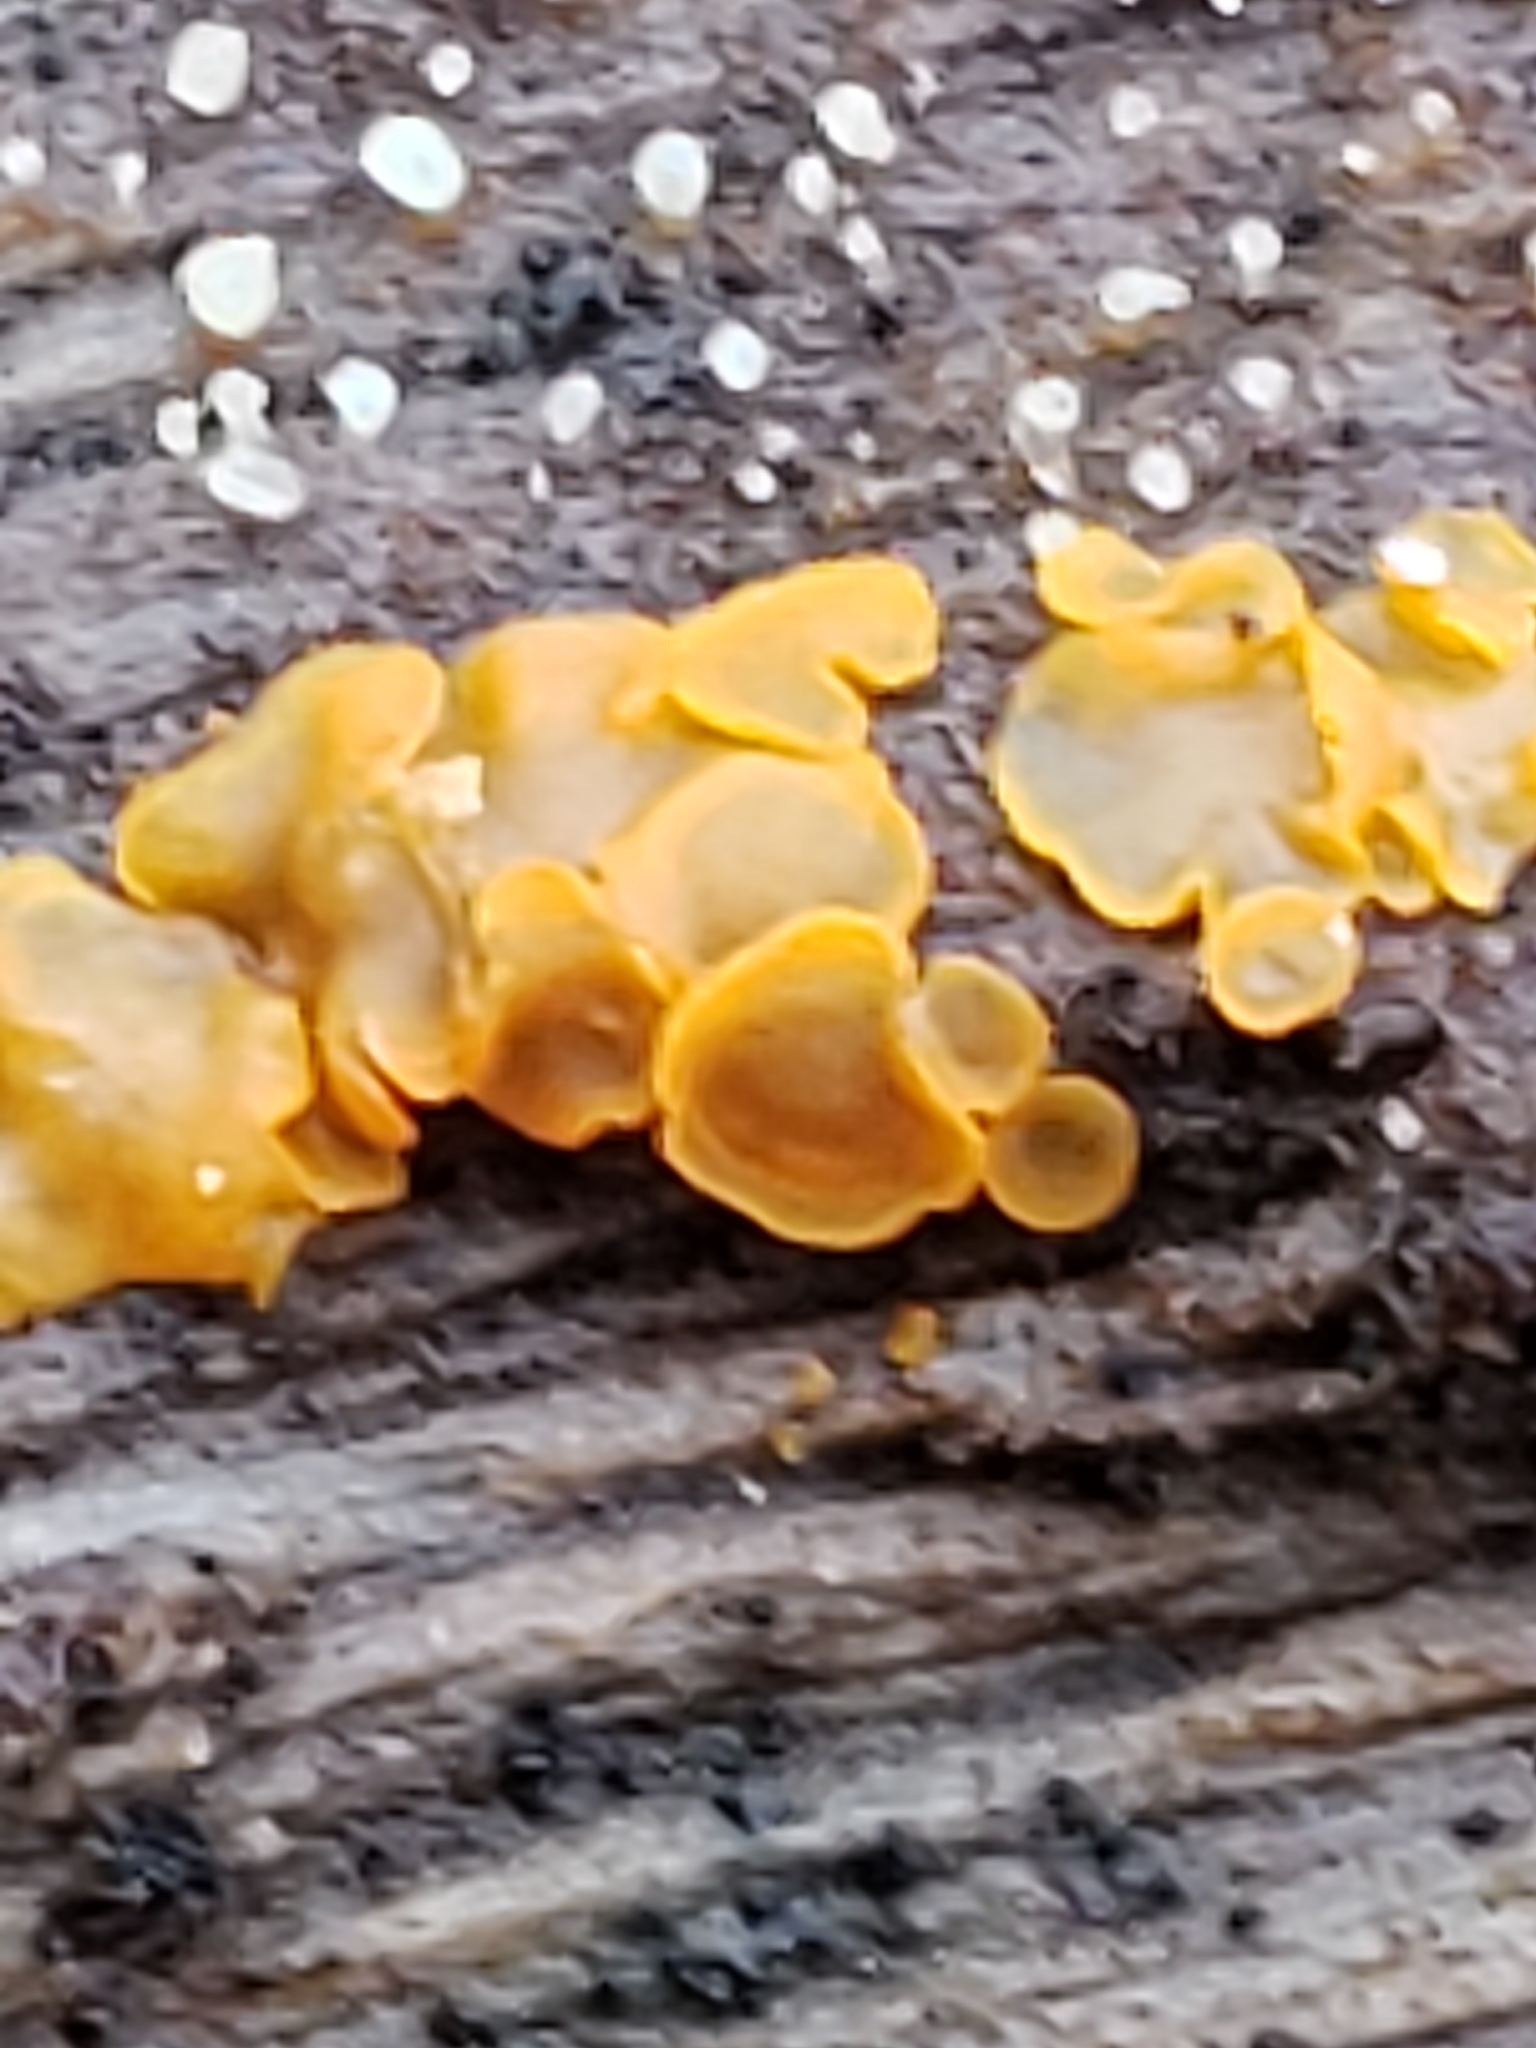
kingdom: Fungi
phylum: Ascomycota
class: Orbiliomycetes
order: Orbiliales
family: Orbiliaceae
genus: Orbilia
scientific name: Orbilia
